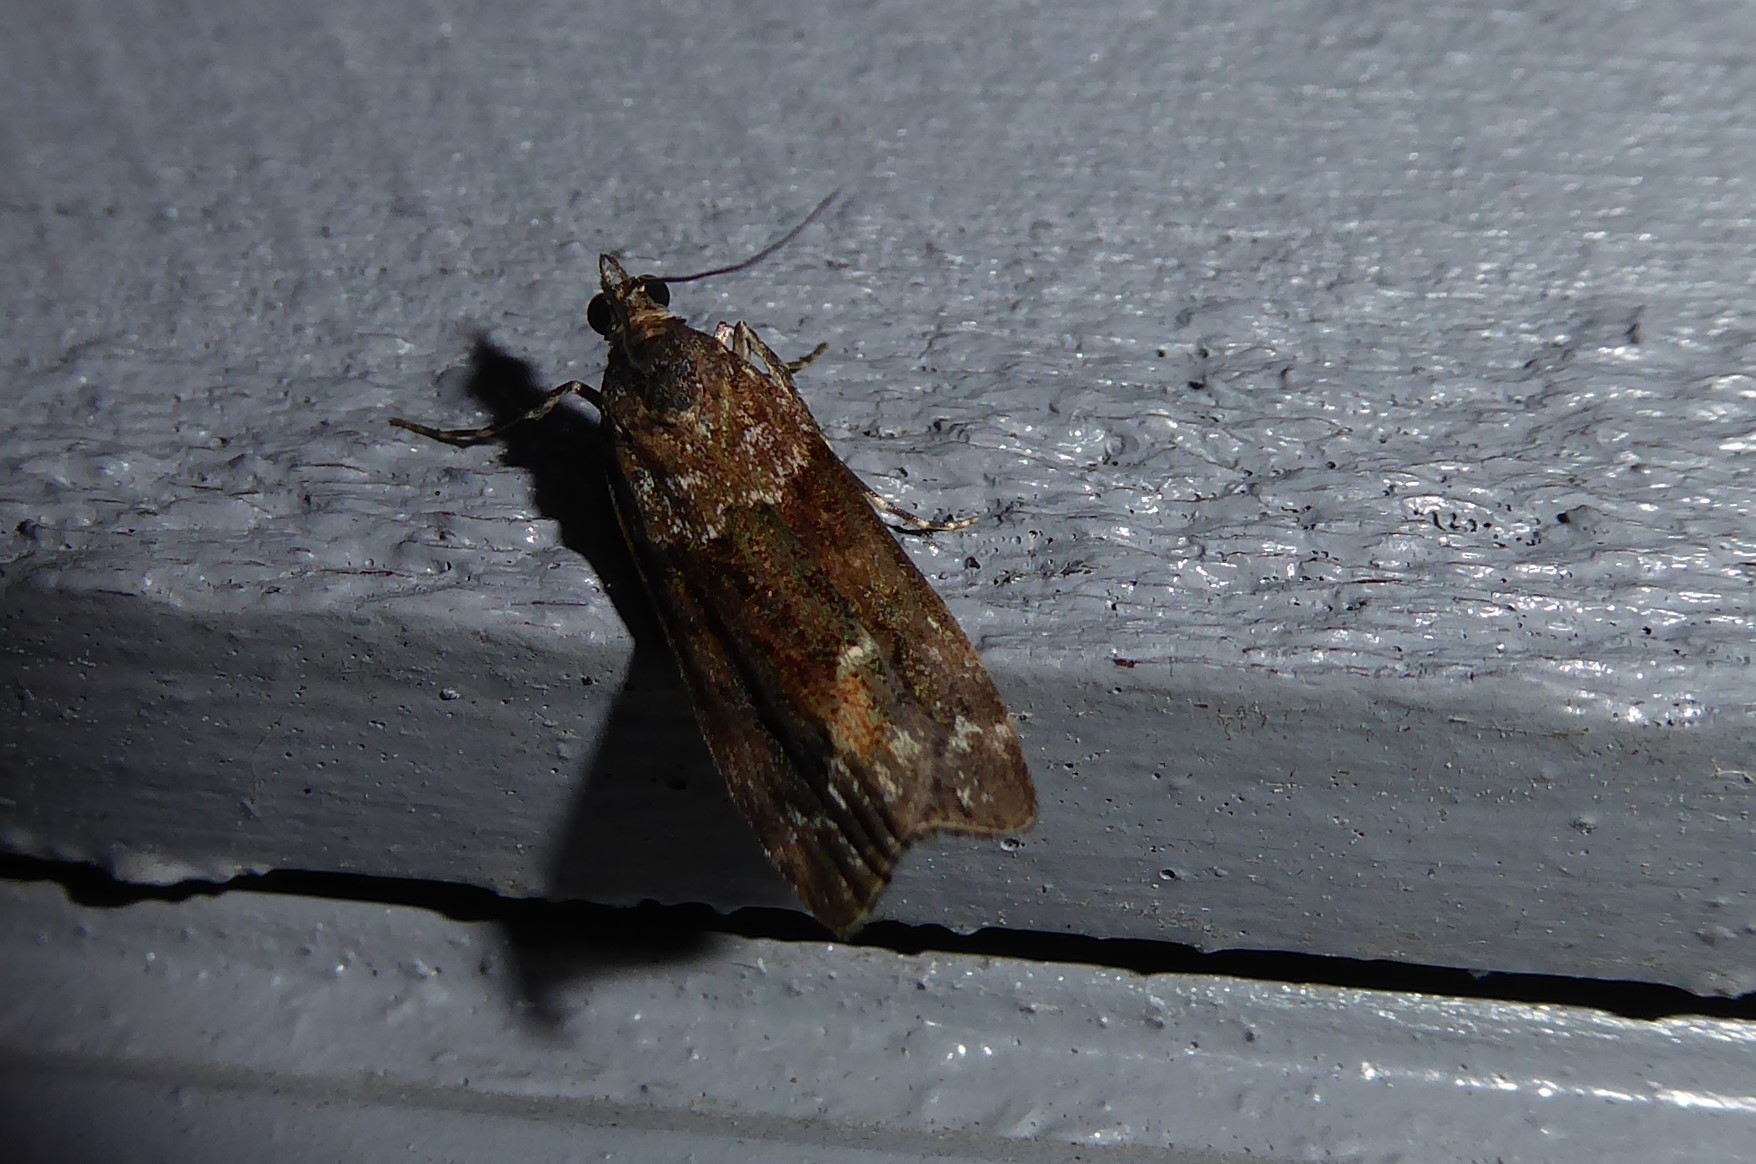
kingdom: Animalia
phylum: Arthropoda
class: Insecta
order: Lepidoptera
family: Crambidae
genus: Eudonia
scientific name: Eudonia submarginalis
